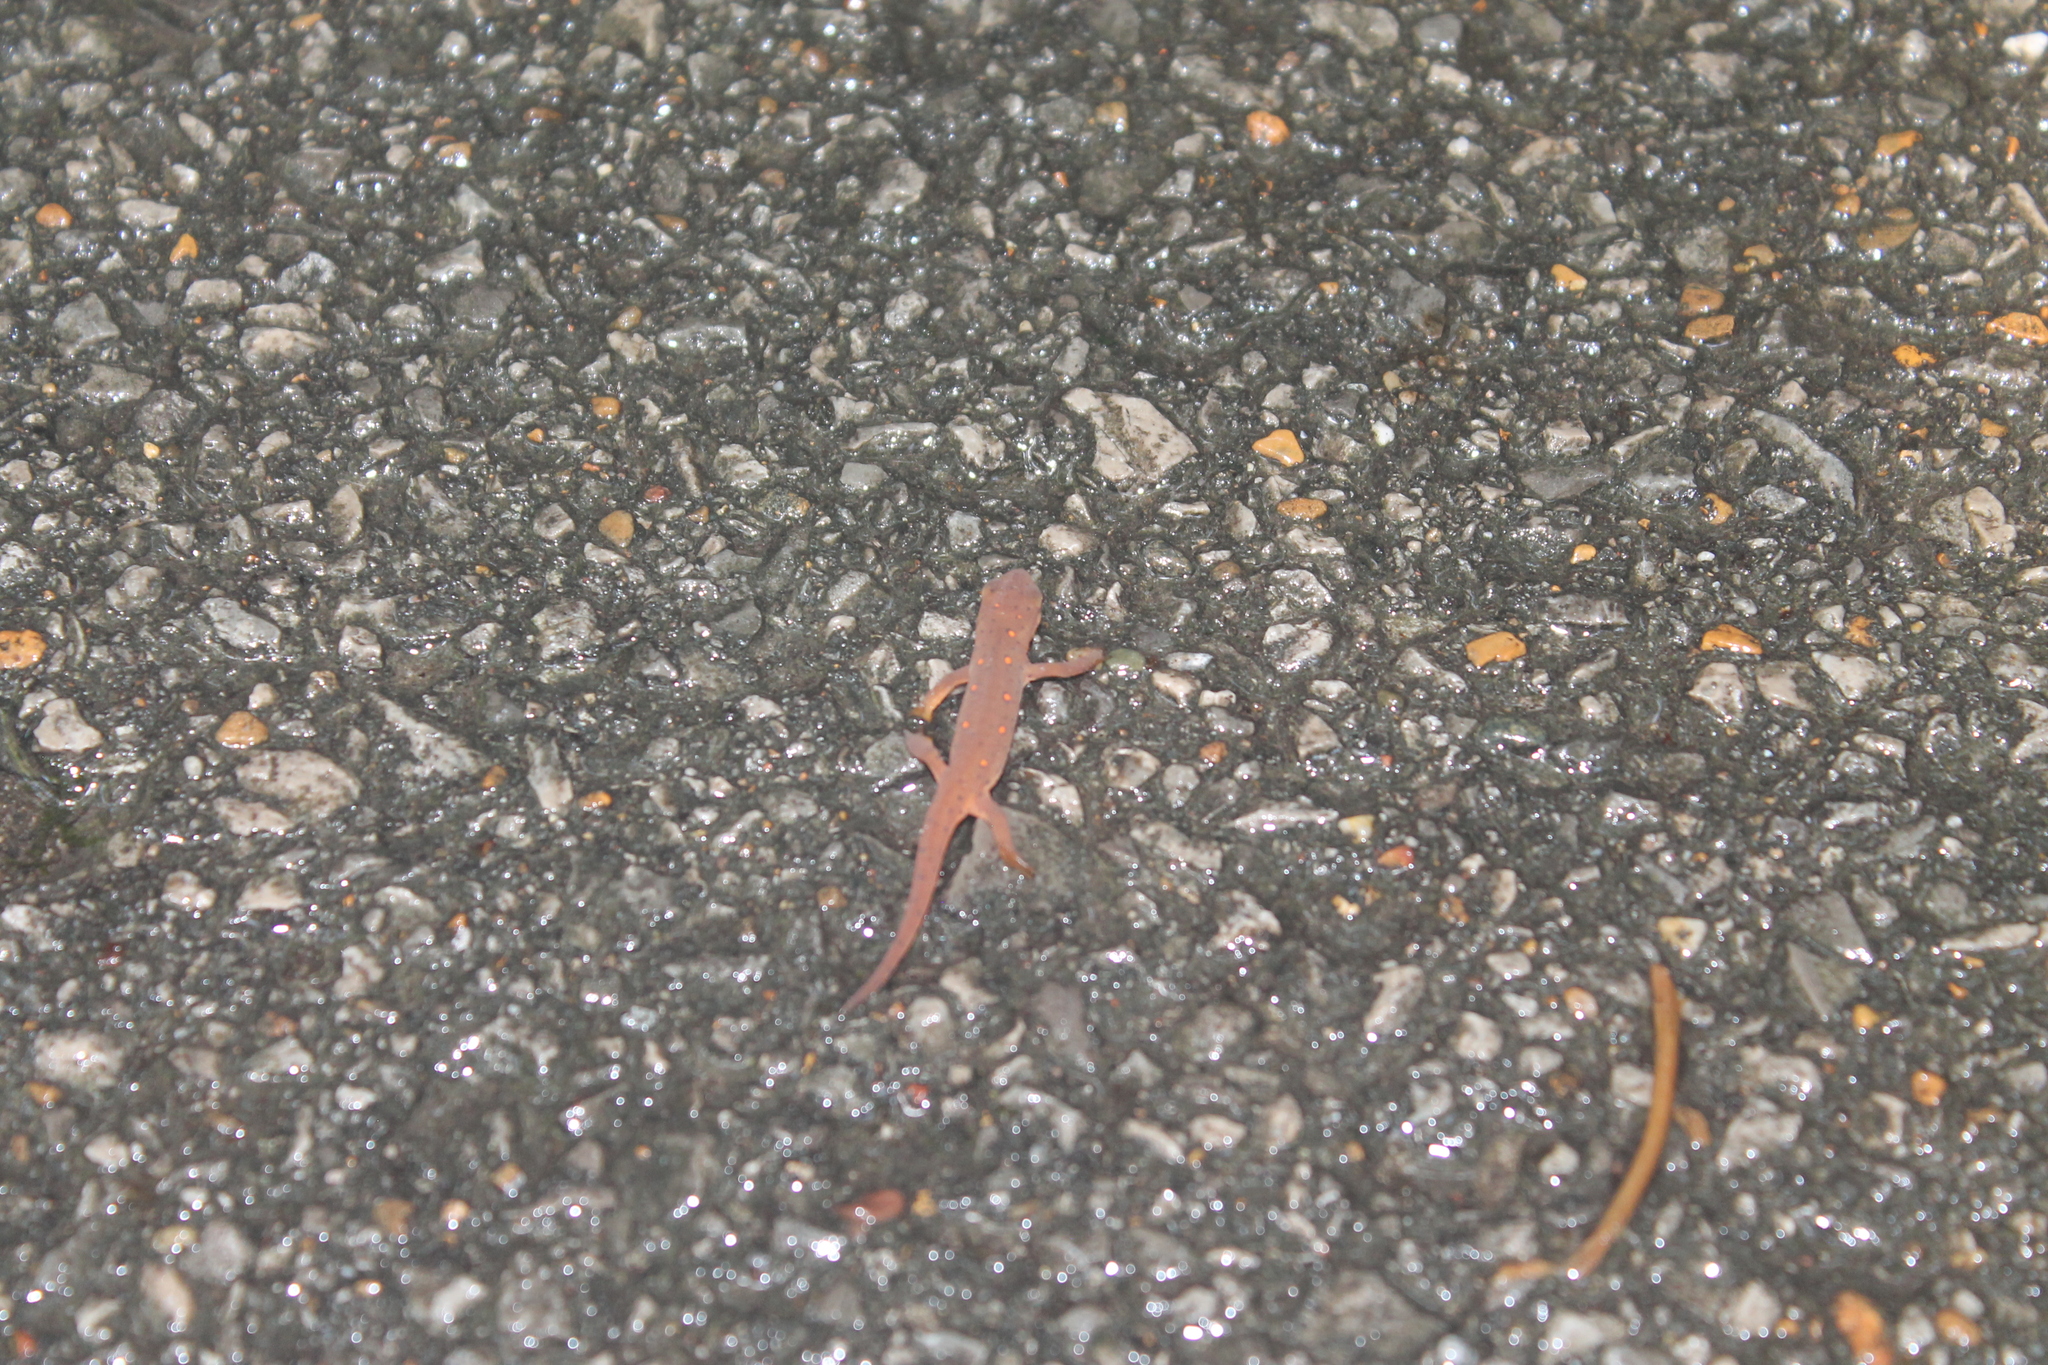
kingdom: Animalia
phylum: Chordata
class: Amphibia
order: Caudata
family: Salamandridae
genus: Notophthalmus
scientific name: Notophthalmus viridescens
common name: Eastern newt
